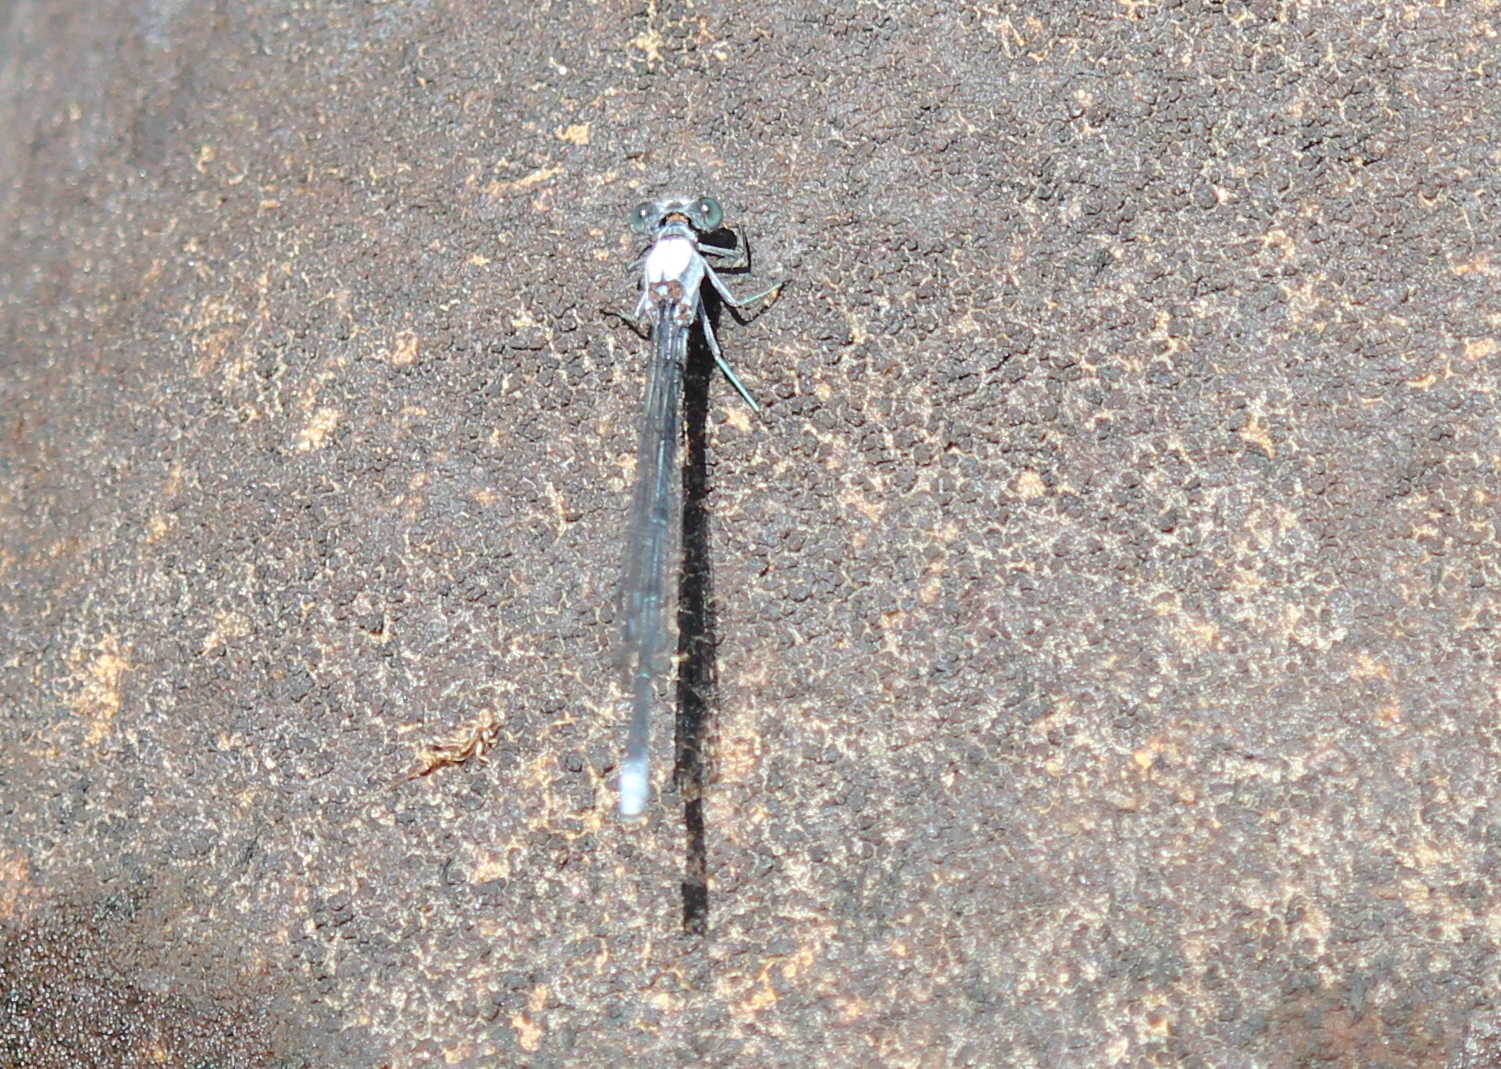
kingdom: Animalia
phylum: Arthropoda
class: Insecta
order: Odonata
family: Coenagrionidae
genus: Argia
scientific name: Argia moesta
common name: Powdered dancer
